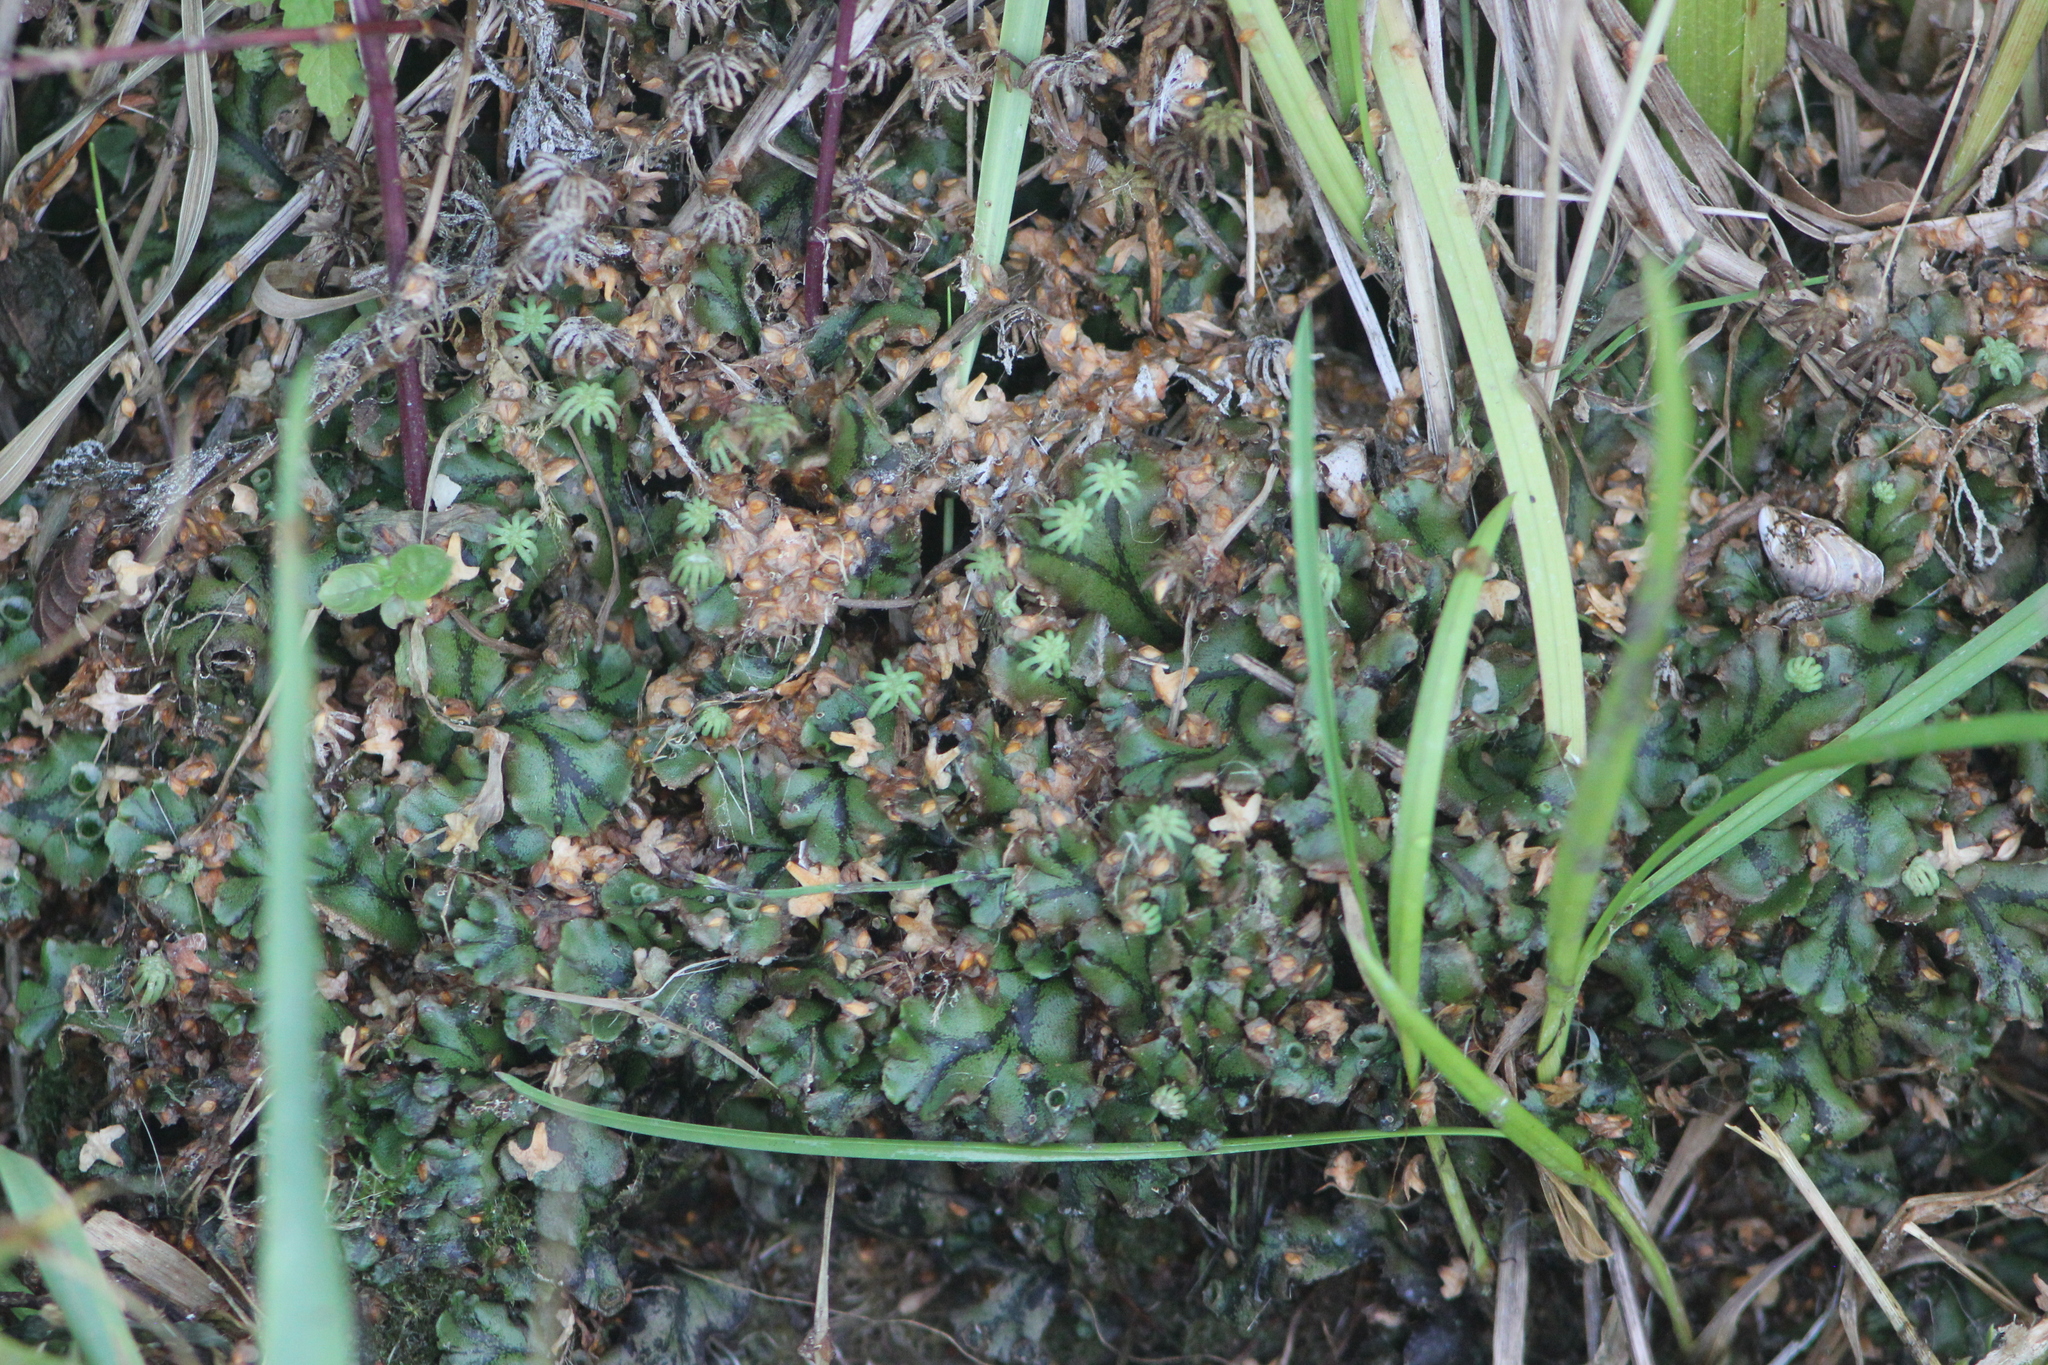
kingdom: Plantae
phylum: Marchantiophyta
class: Marchantiopsida
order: Marchantiales
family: Marchantiaceae
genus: Marchantia
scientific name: Marchantia polymorpha
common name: Common liverwort
